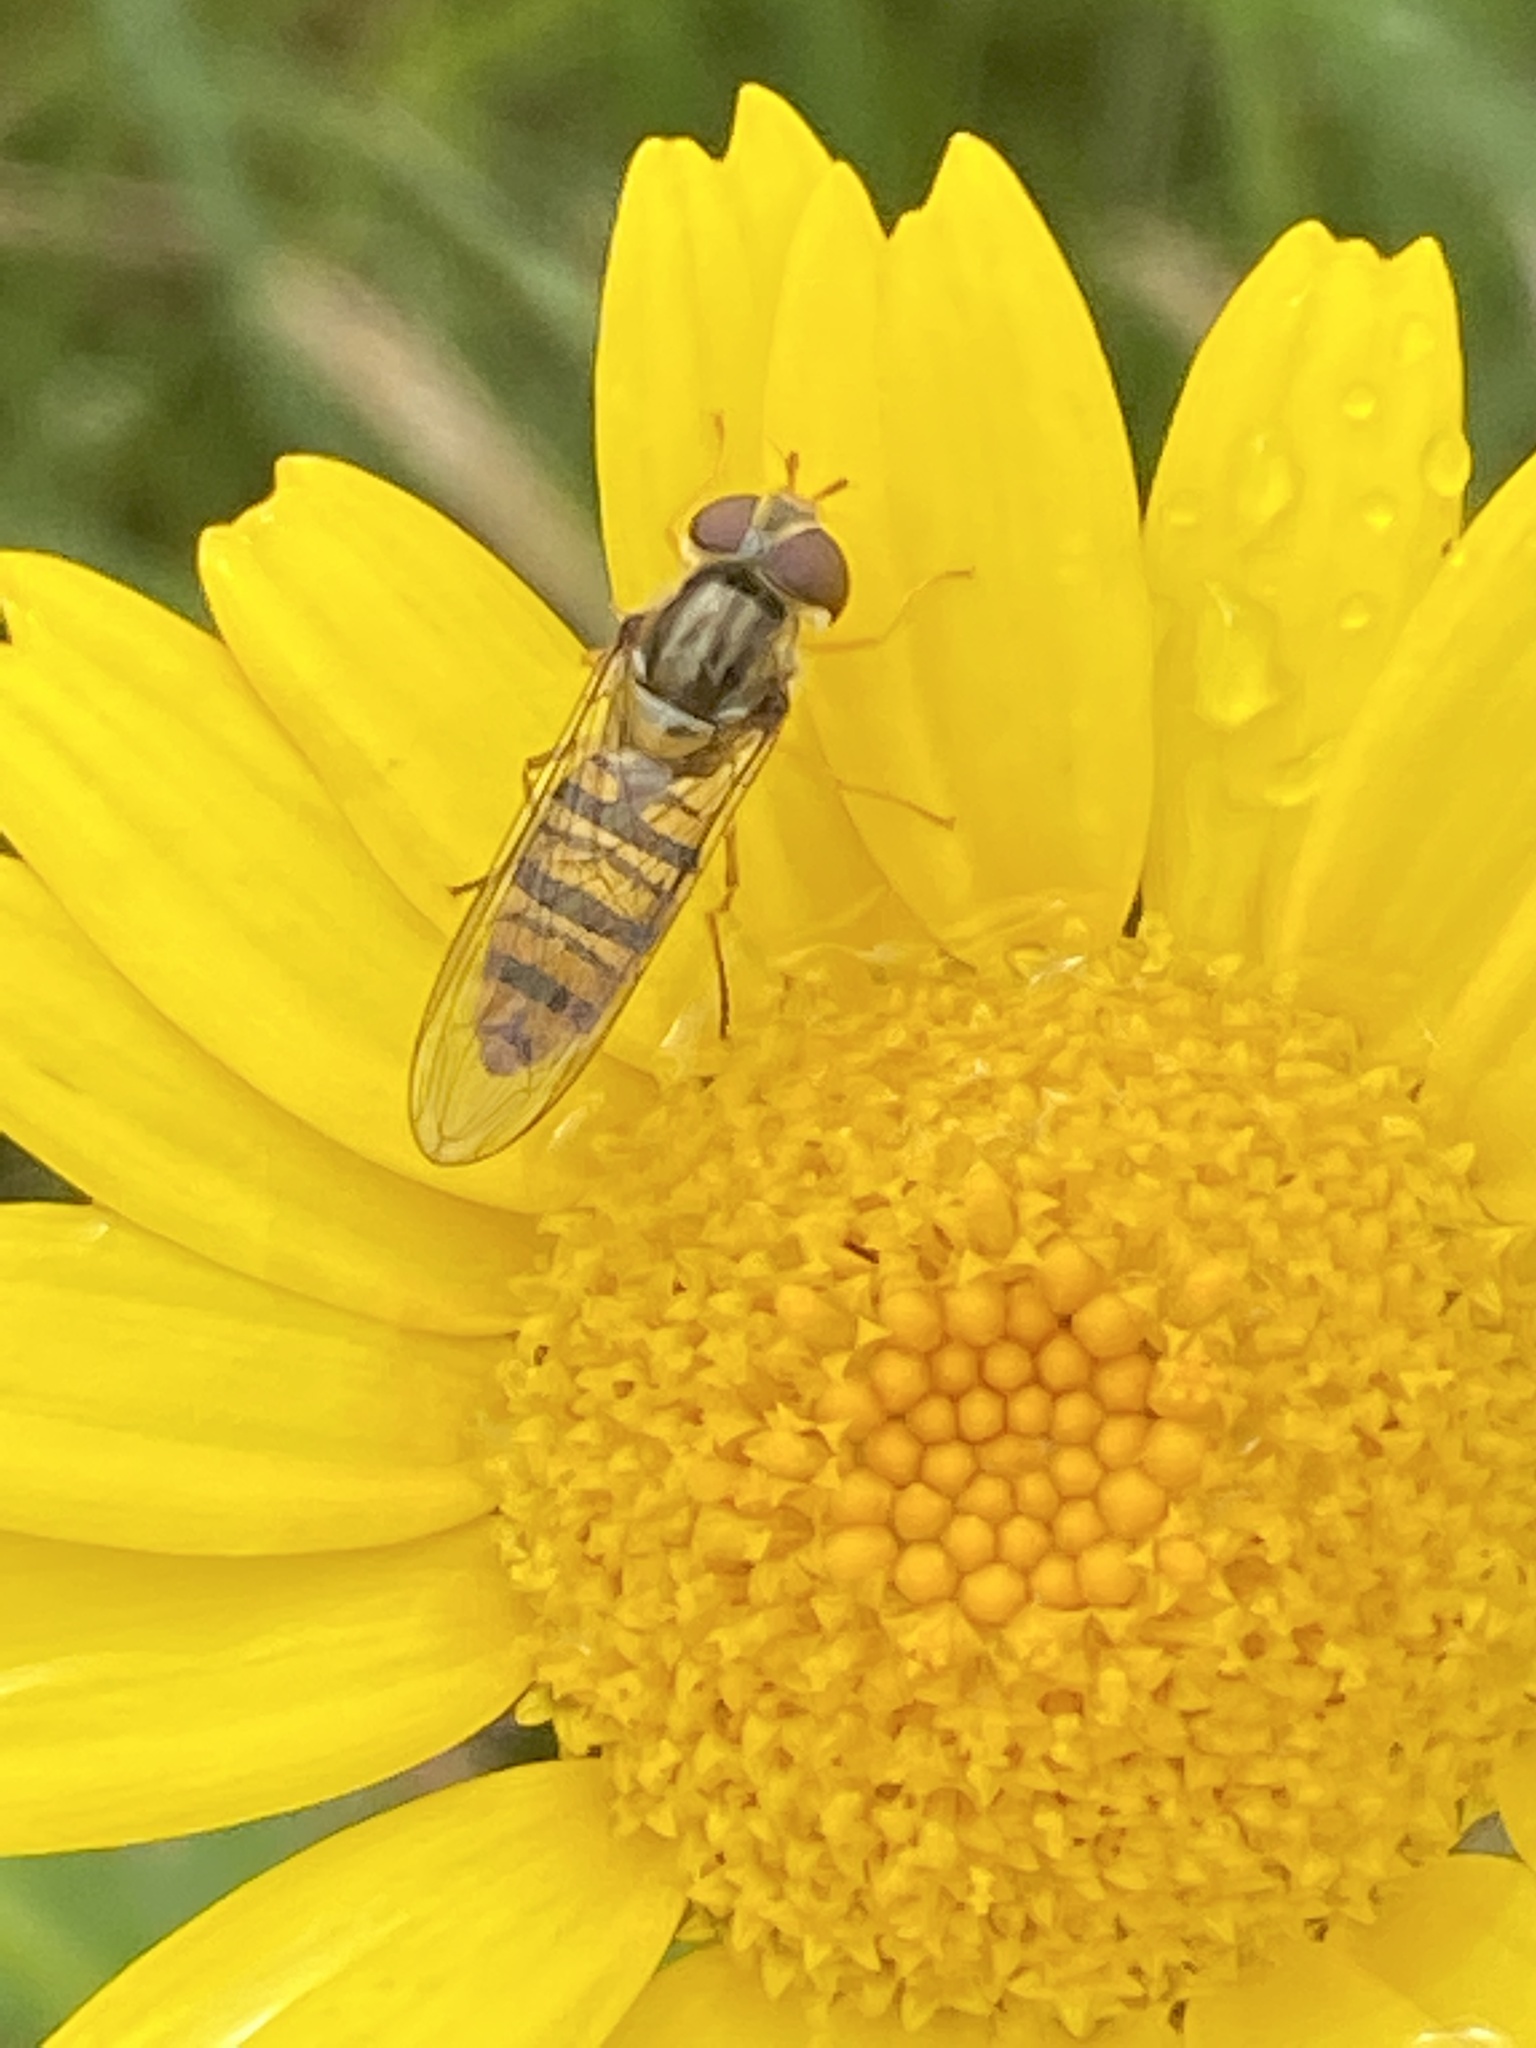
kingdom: Animalia
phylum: Arthropoda
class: Insecta
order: Diptera
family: Syrphidae
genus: Episyrphus
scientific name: Episyrphus balteatus
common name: Marmalade hoverfly
